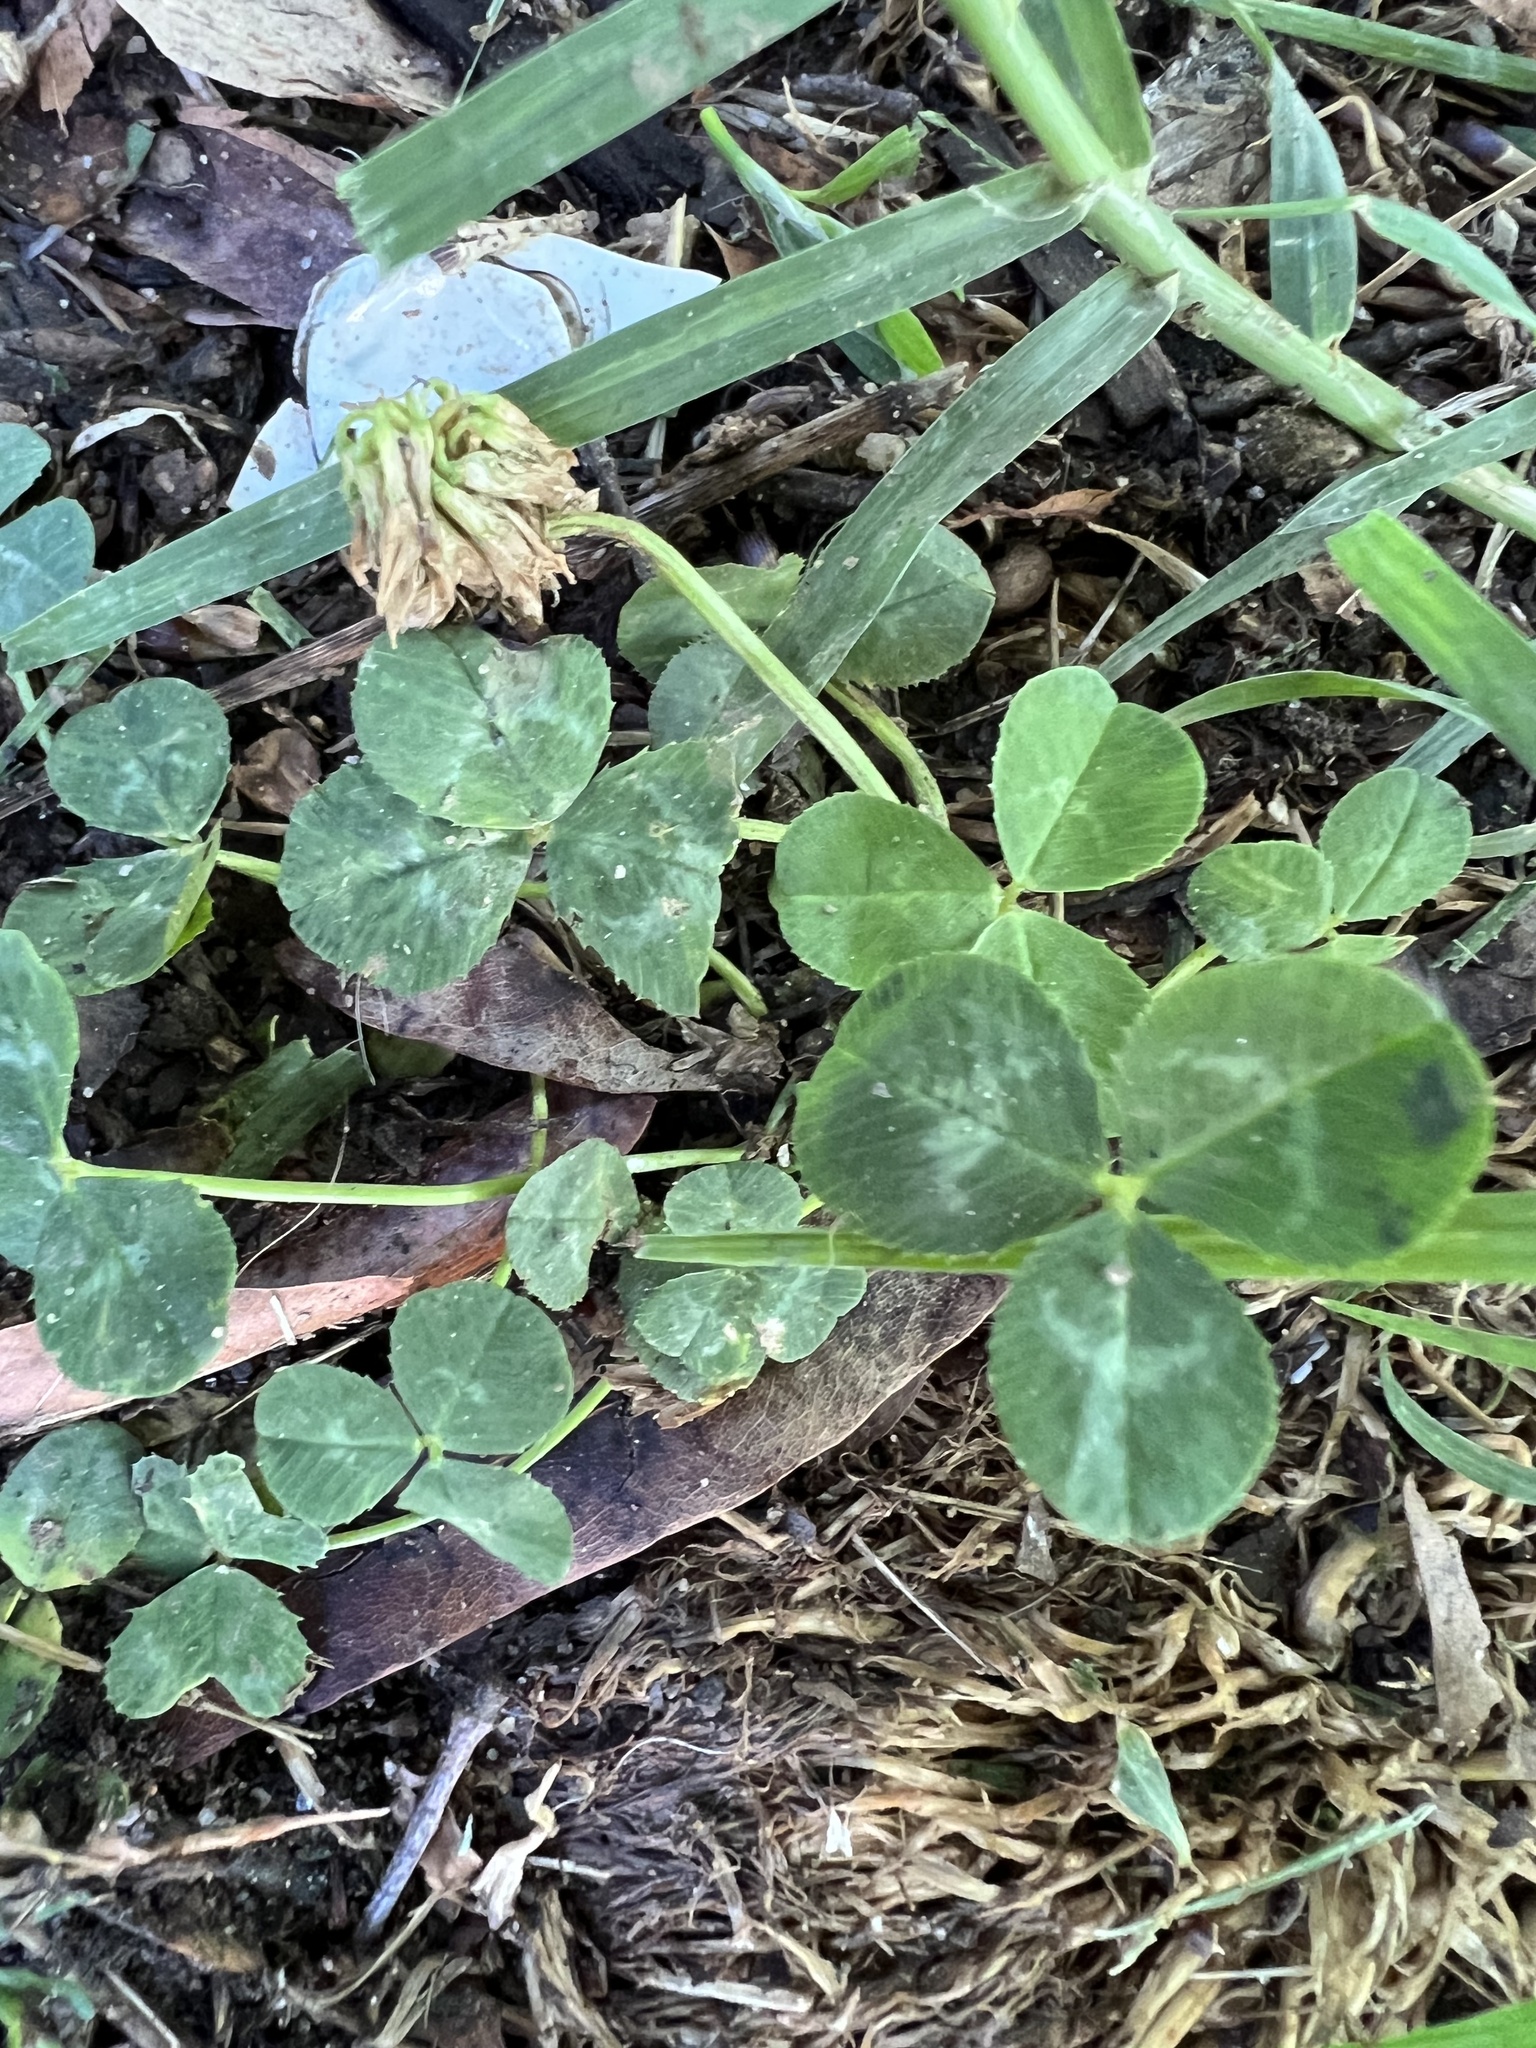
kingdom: Plantae
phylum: Tracheophyta
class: Magnoliopsida
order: Fabales
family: Fabaceae
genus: Trifolium
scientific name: Trifolium repens
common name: White clover
